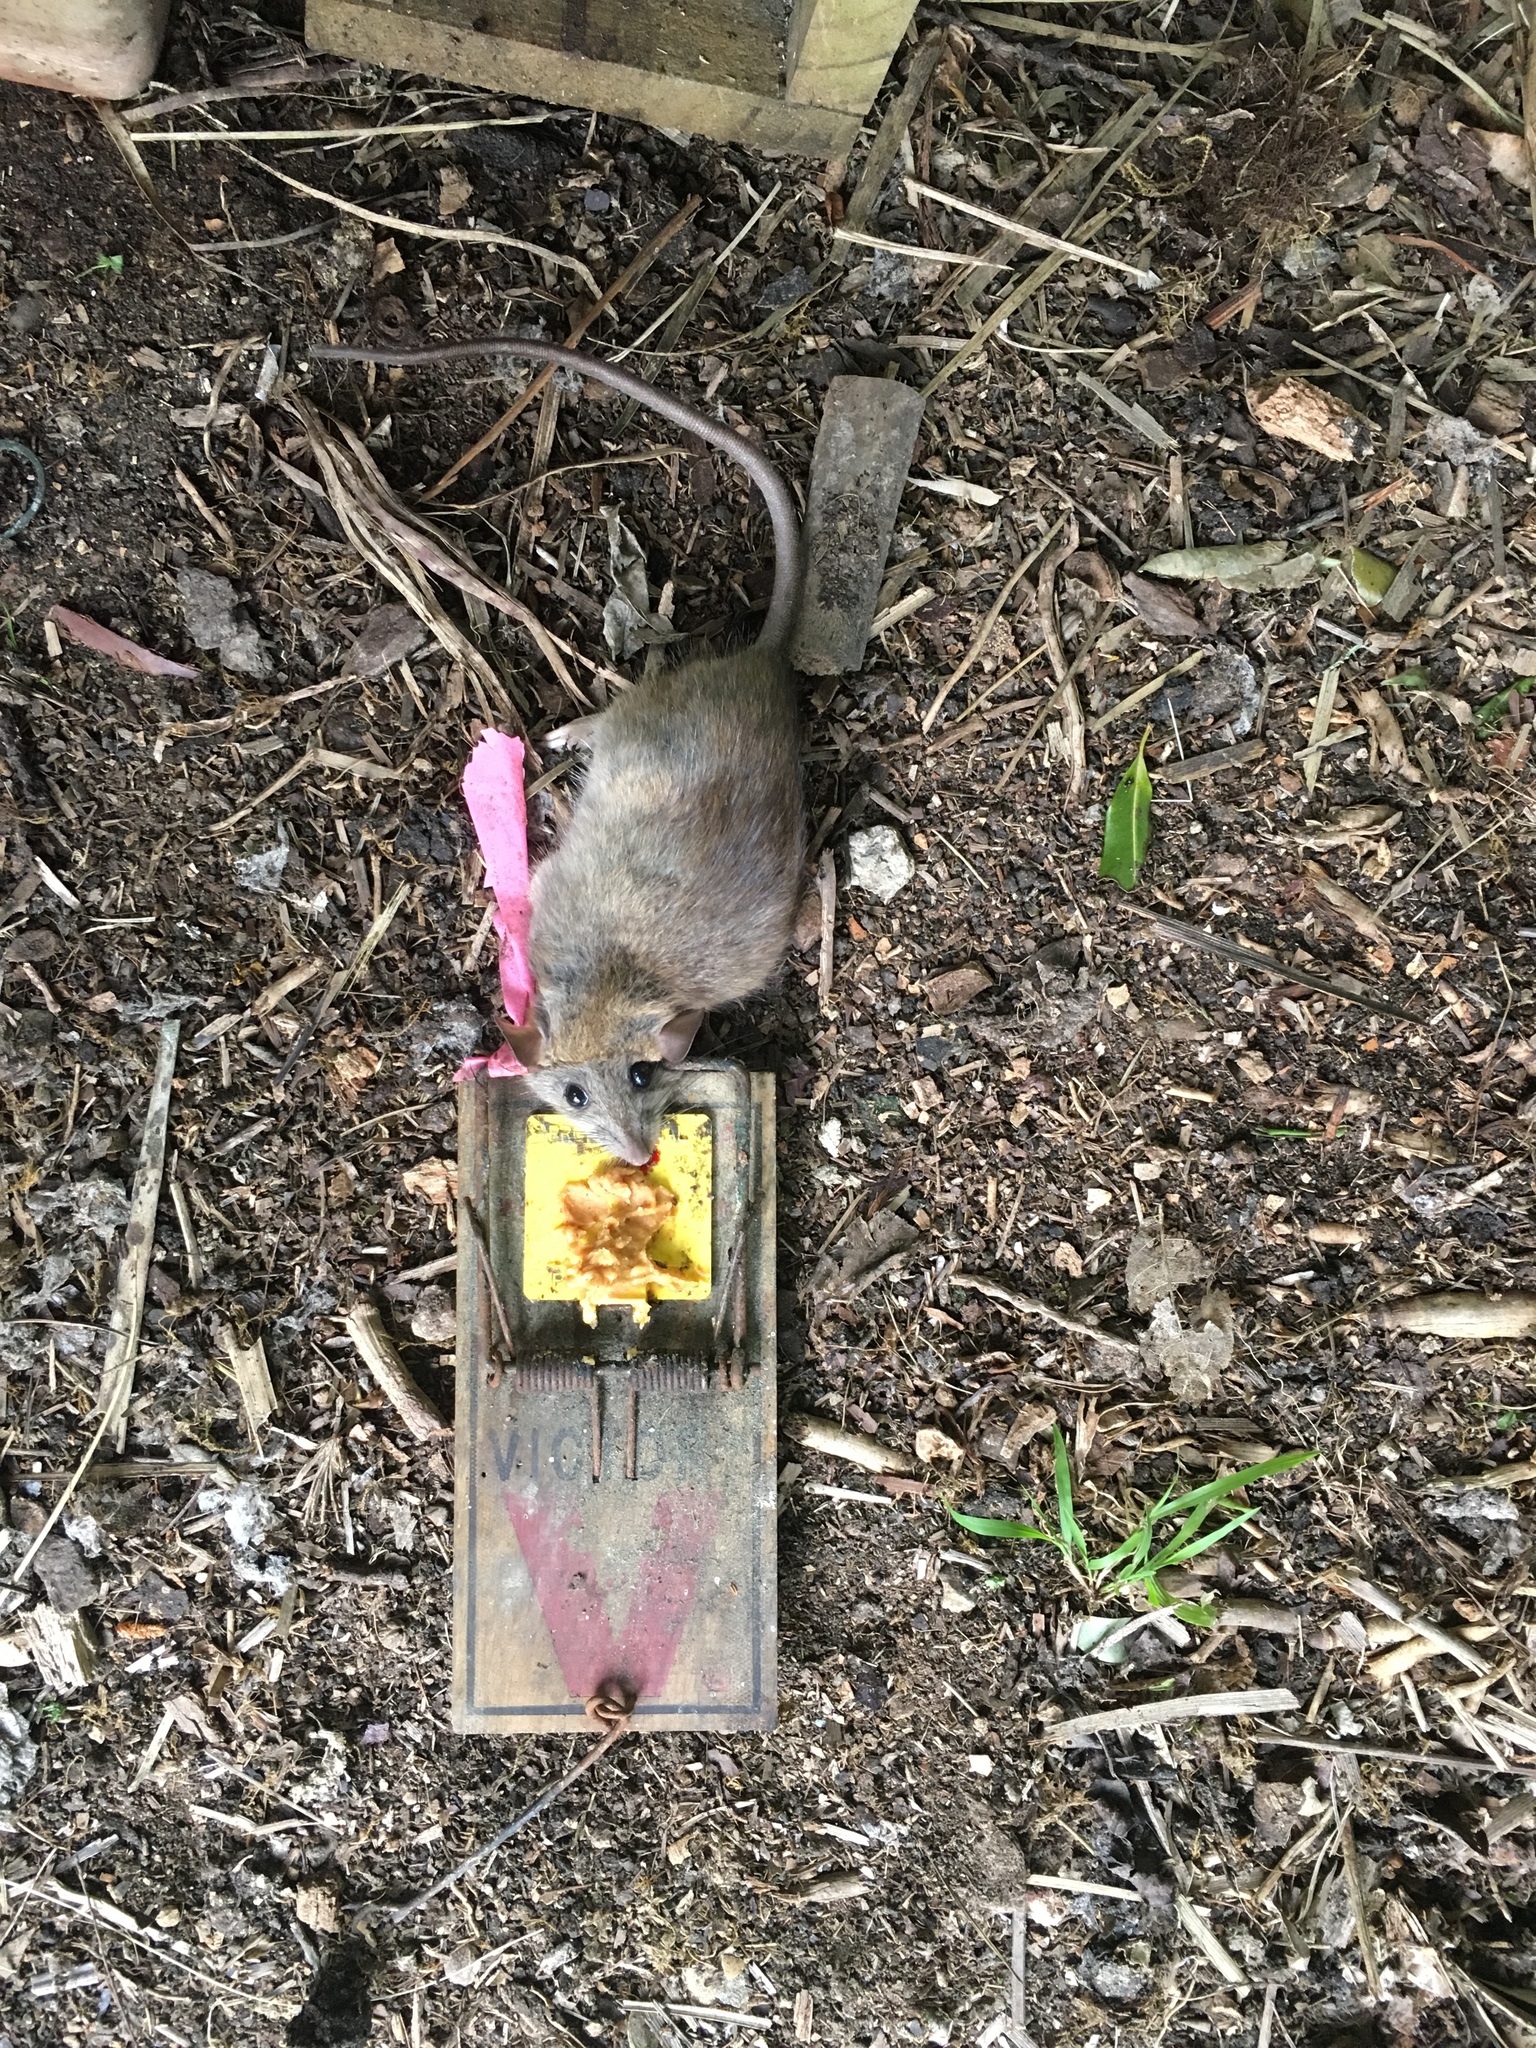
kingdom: Animalia
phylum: Chordata
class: Mammalia
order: Rodentia
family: Muridae
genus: Rattus
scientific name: Rattus rattus
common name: Black rat
